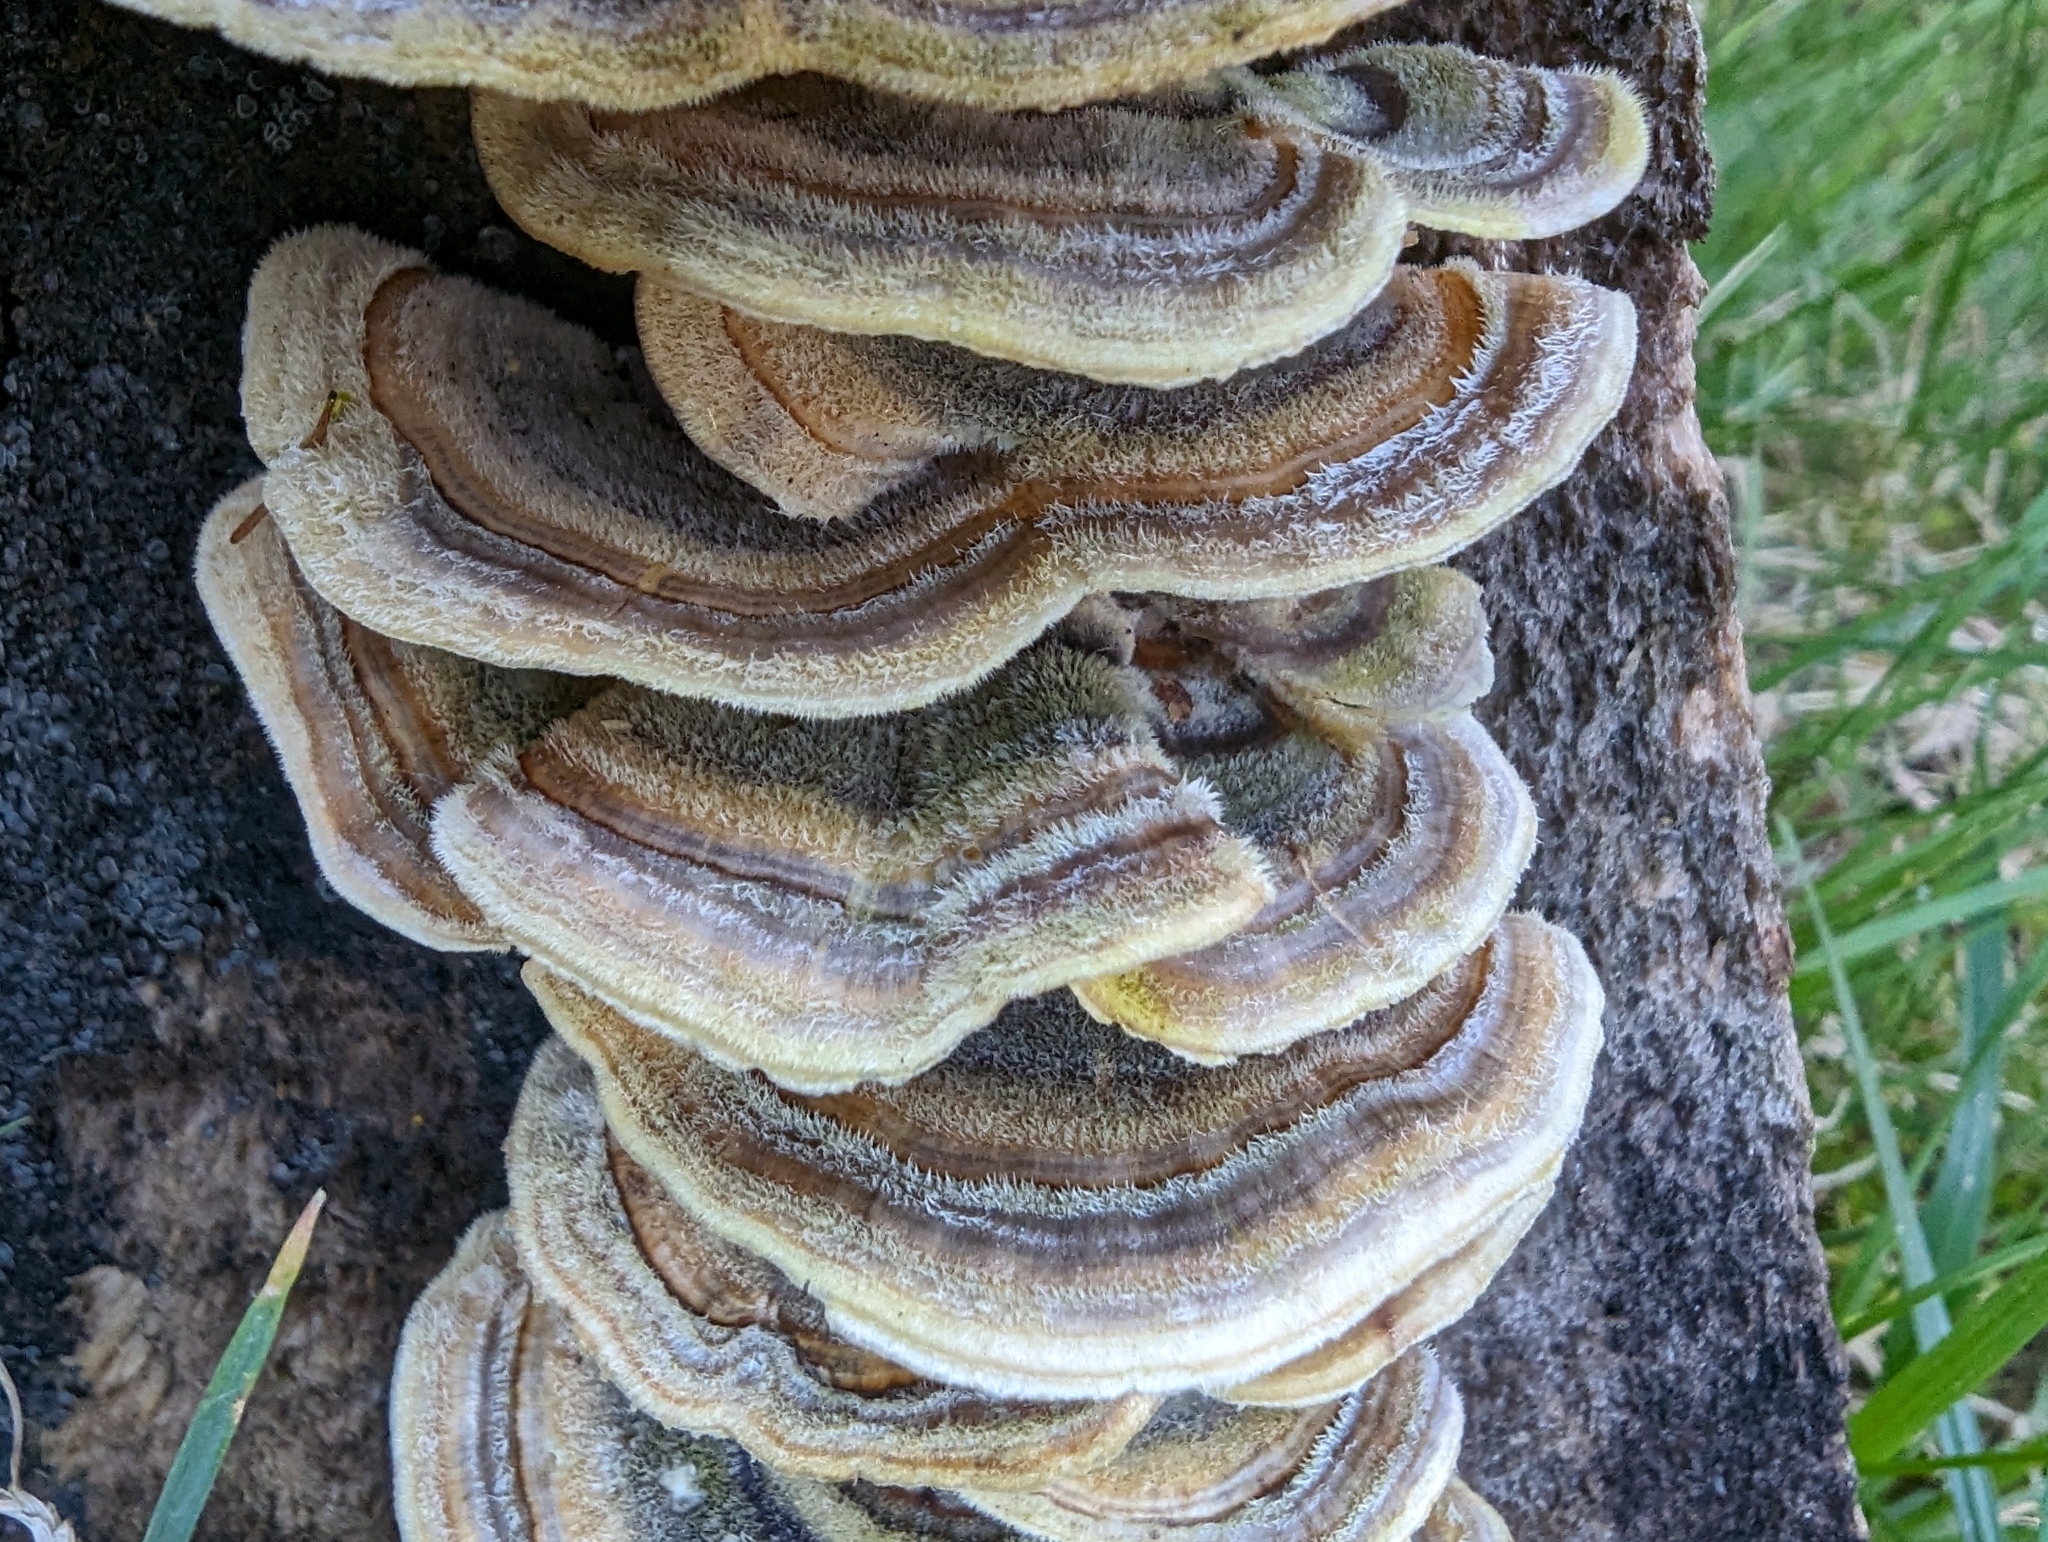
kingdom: Fungi
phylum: Basidiomycota
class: Agaricomycetes
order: Polyporales
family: Polyporaceae
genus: Trametes
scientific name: Trametes versicolor
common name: Turkeytail
